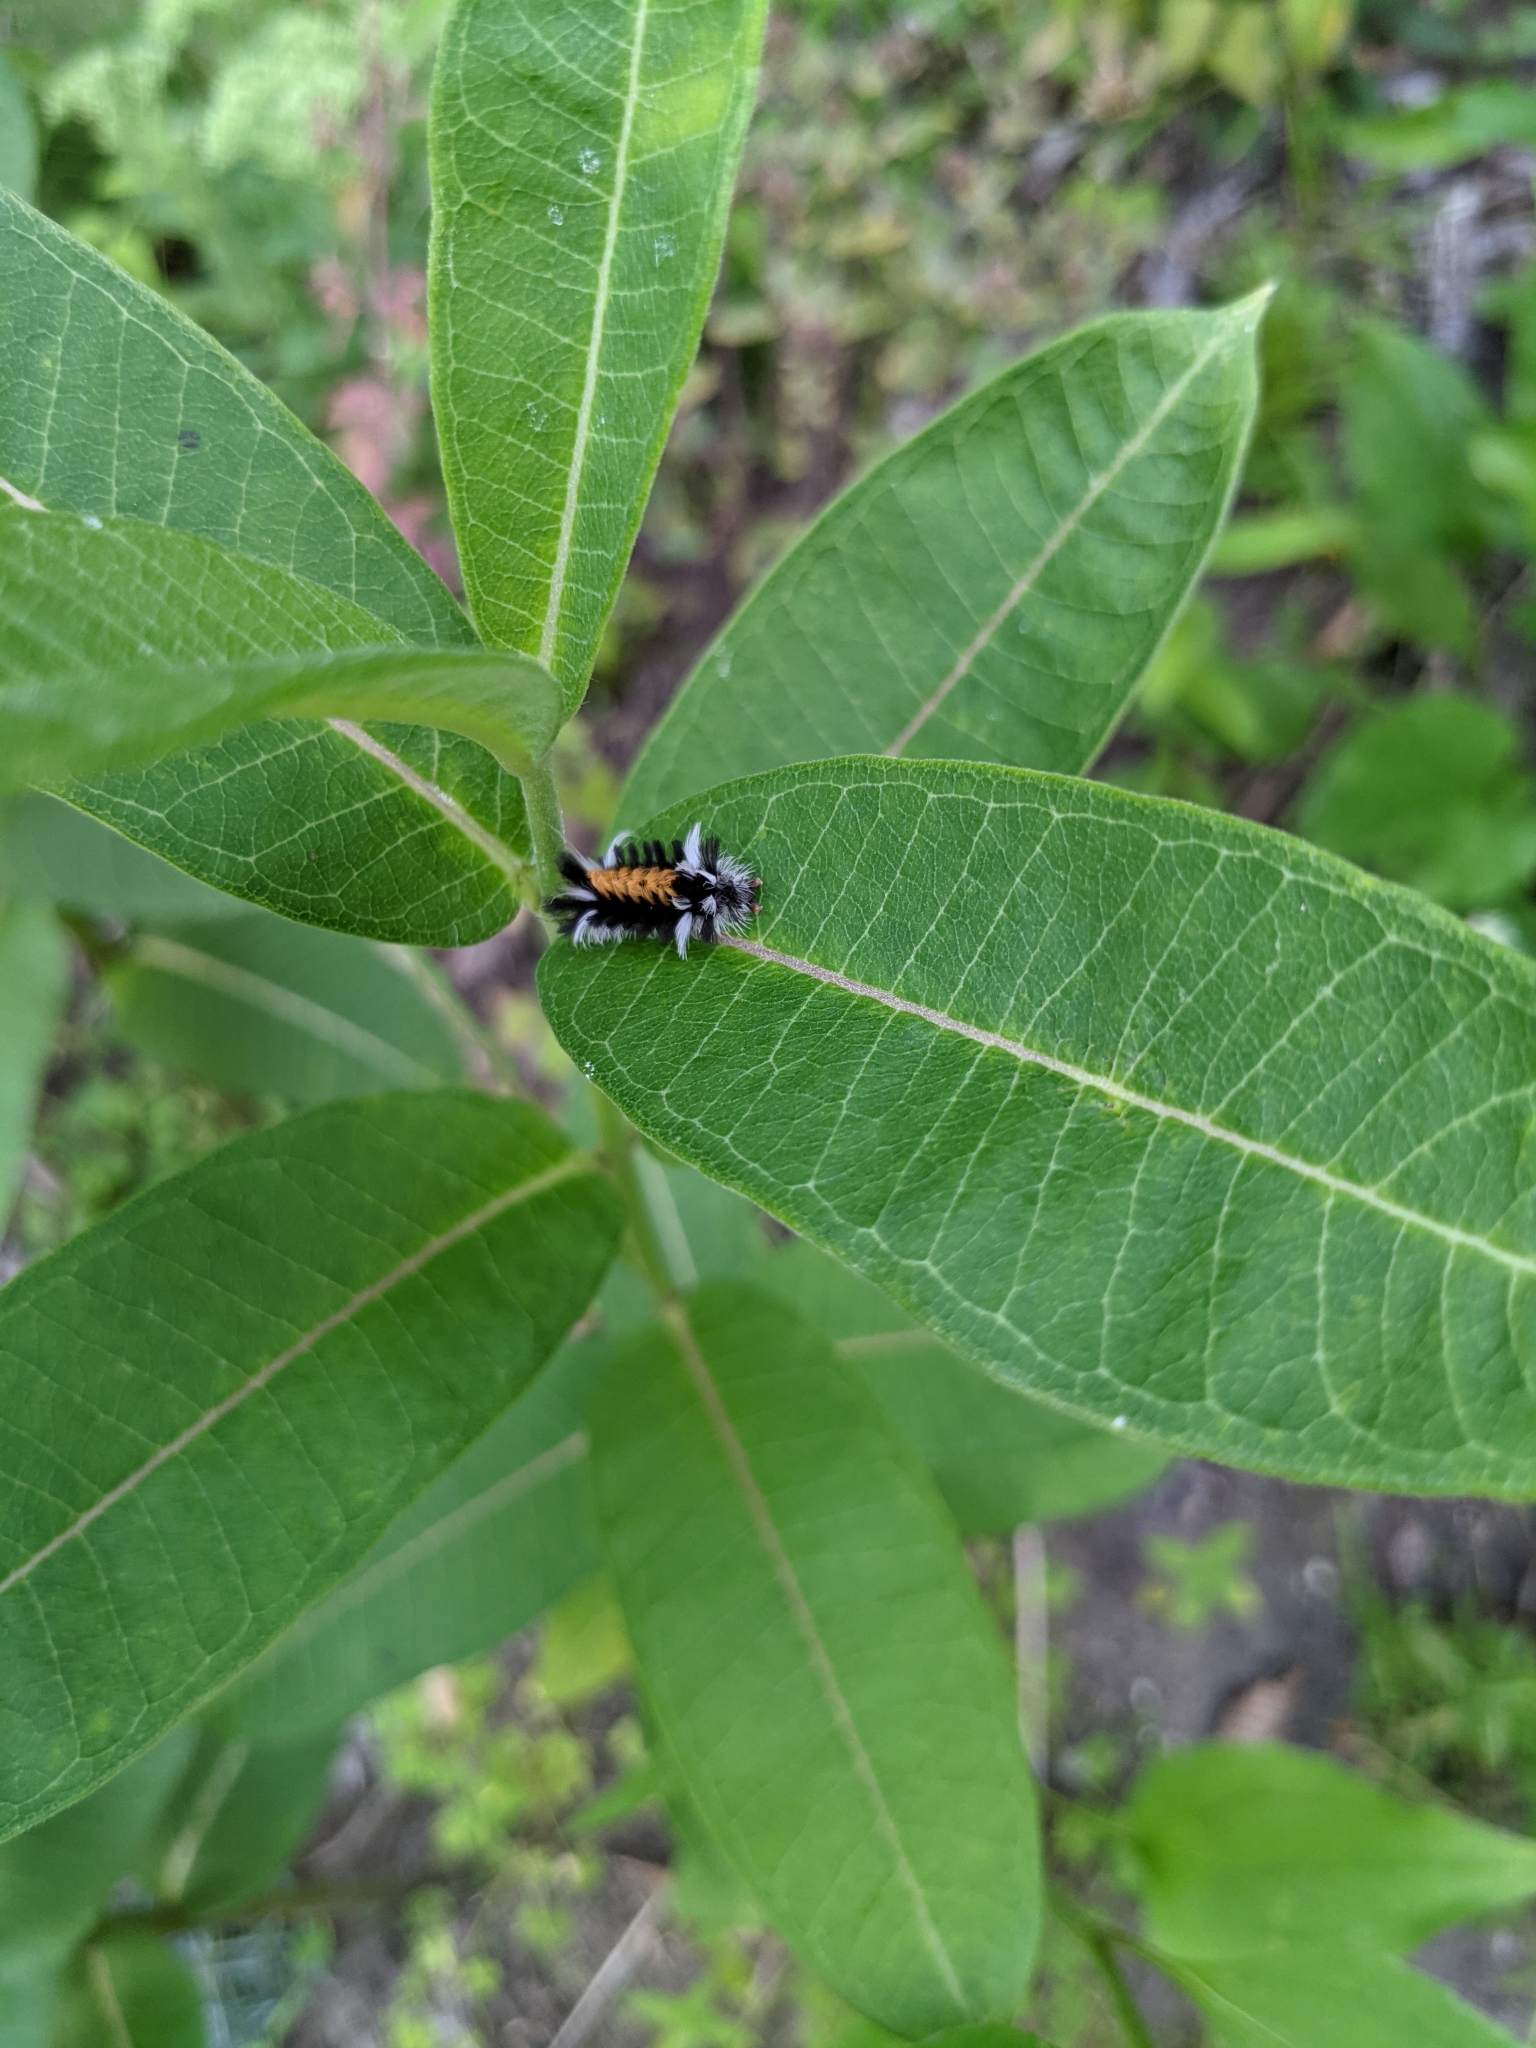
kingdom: Animalia
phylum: Arthropoda
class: Insecta
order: Lepidoptera
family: Erebidae
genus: Euchaetes
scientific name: Euchaetes egle
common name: Milkweed tussock moth
